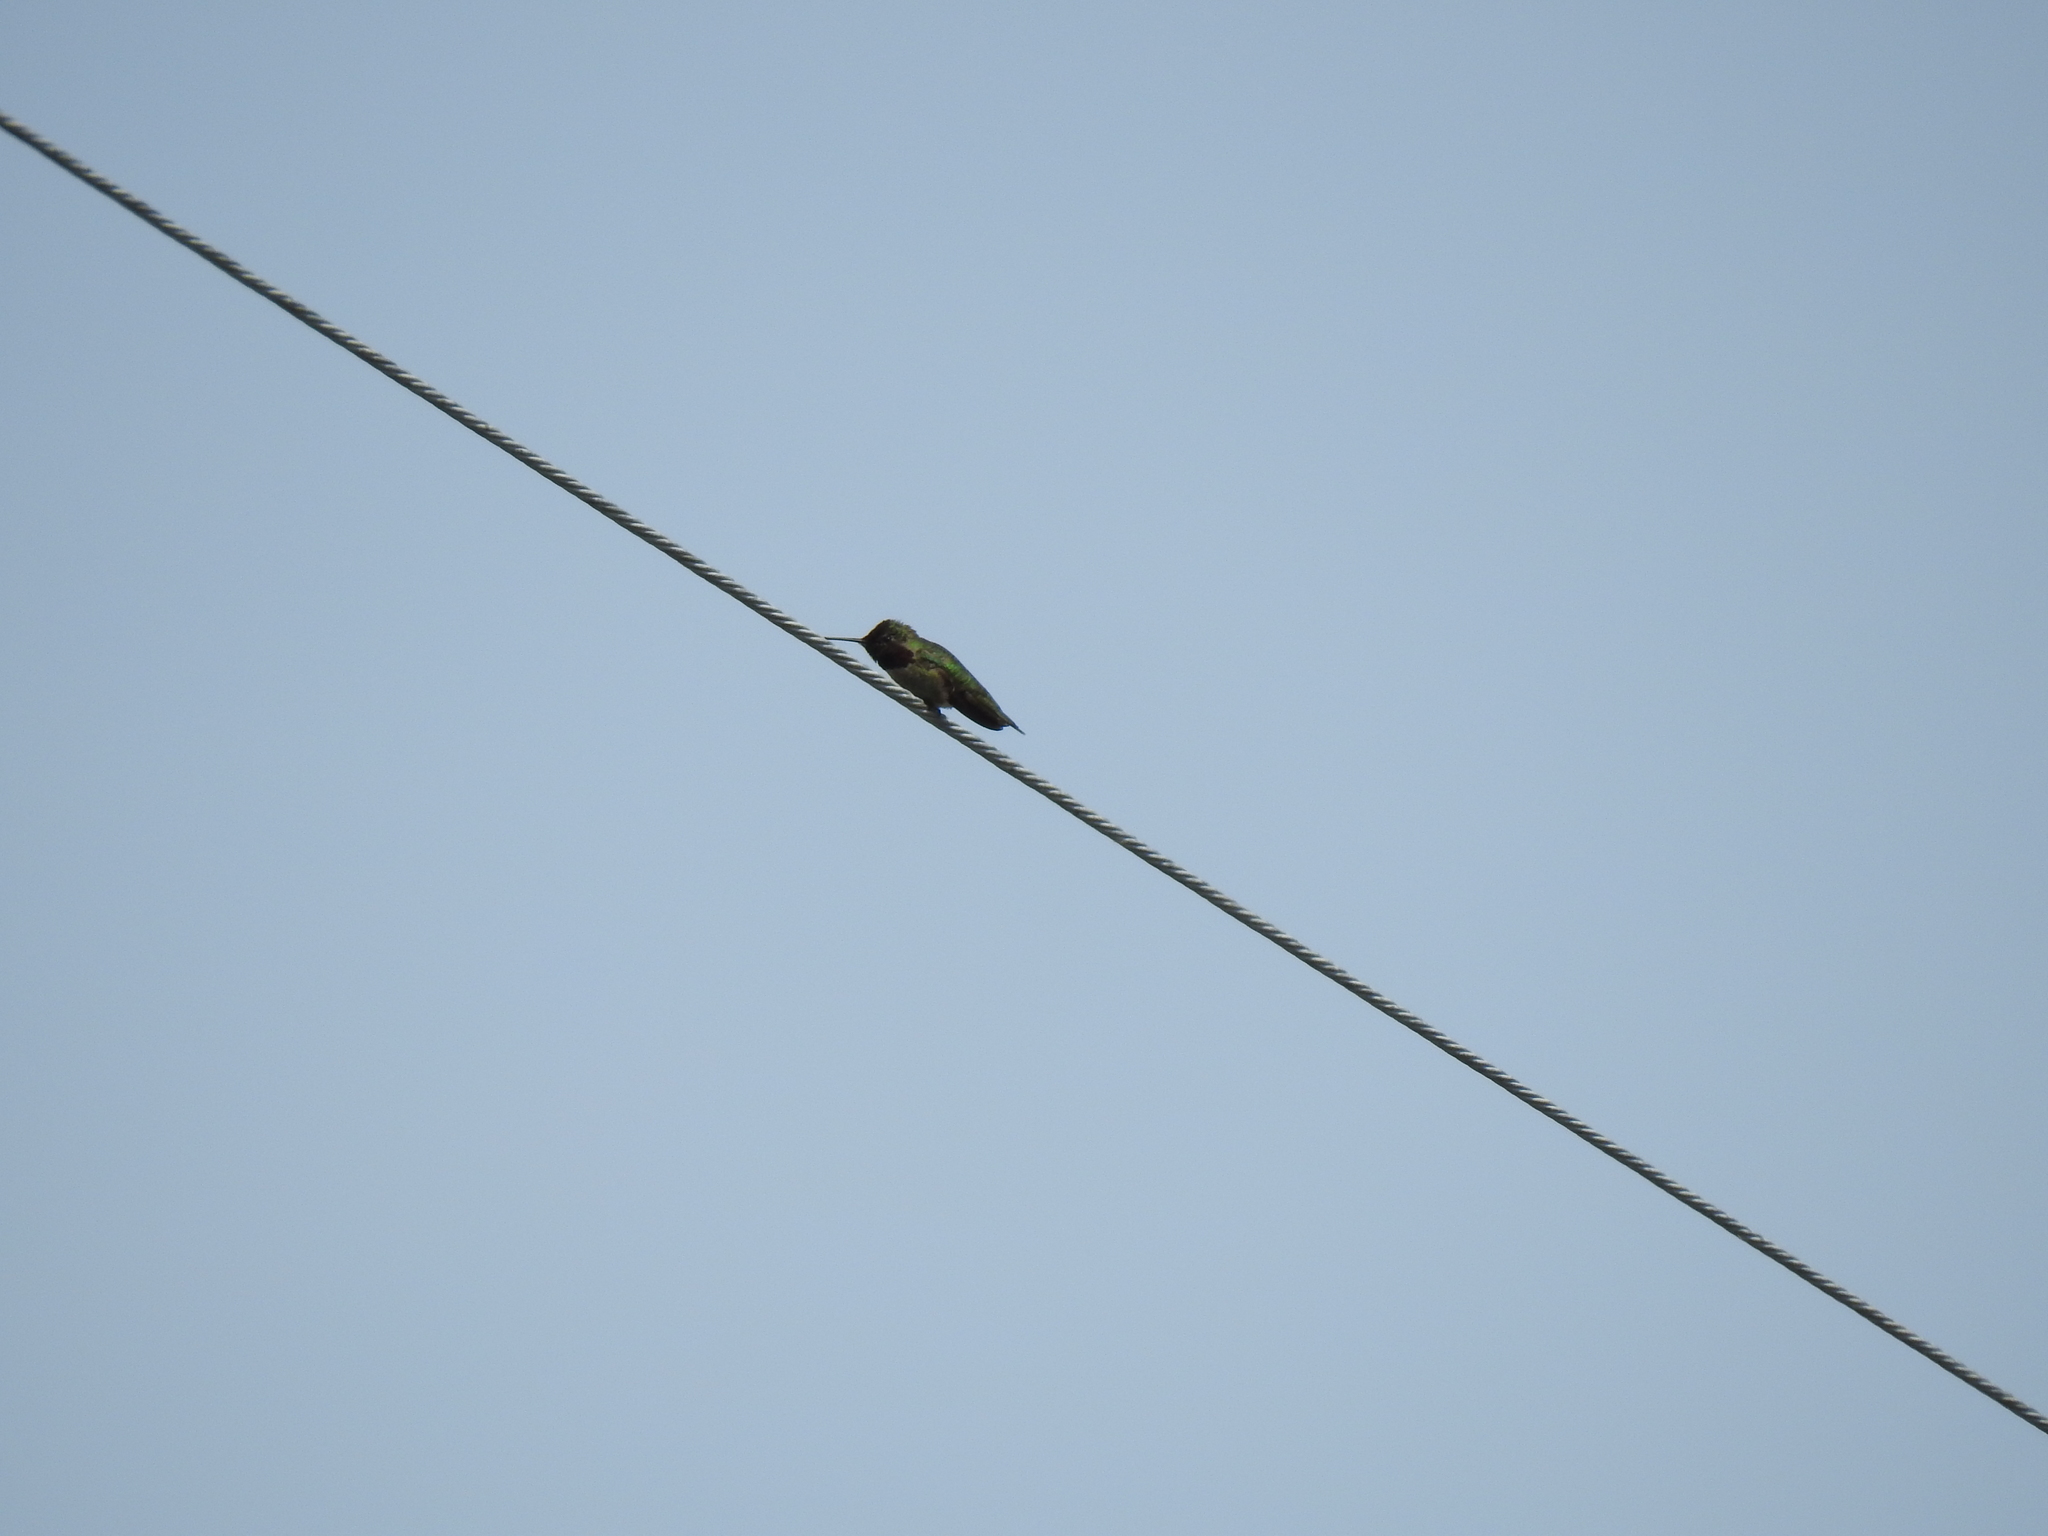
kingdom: Animalia
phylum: Chordata
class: Aves
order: Apodiformes
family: Trochilidae
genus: Calypte
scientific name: Calypte anna
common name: Anna's hummingbird
